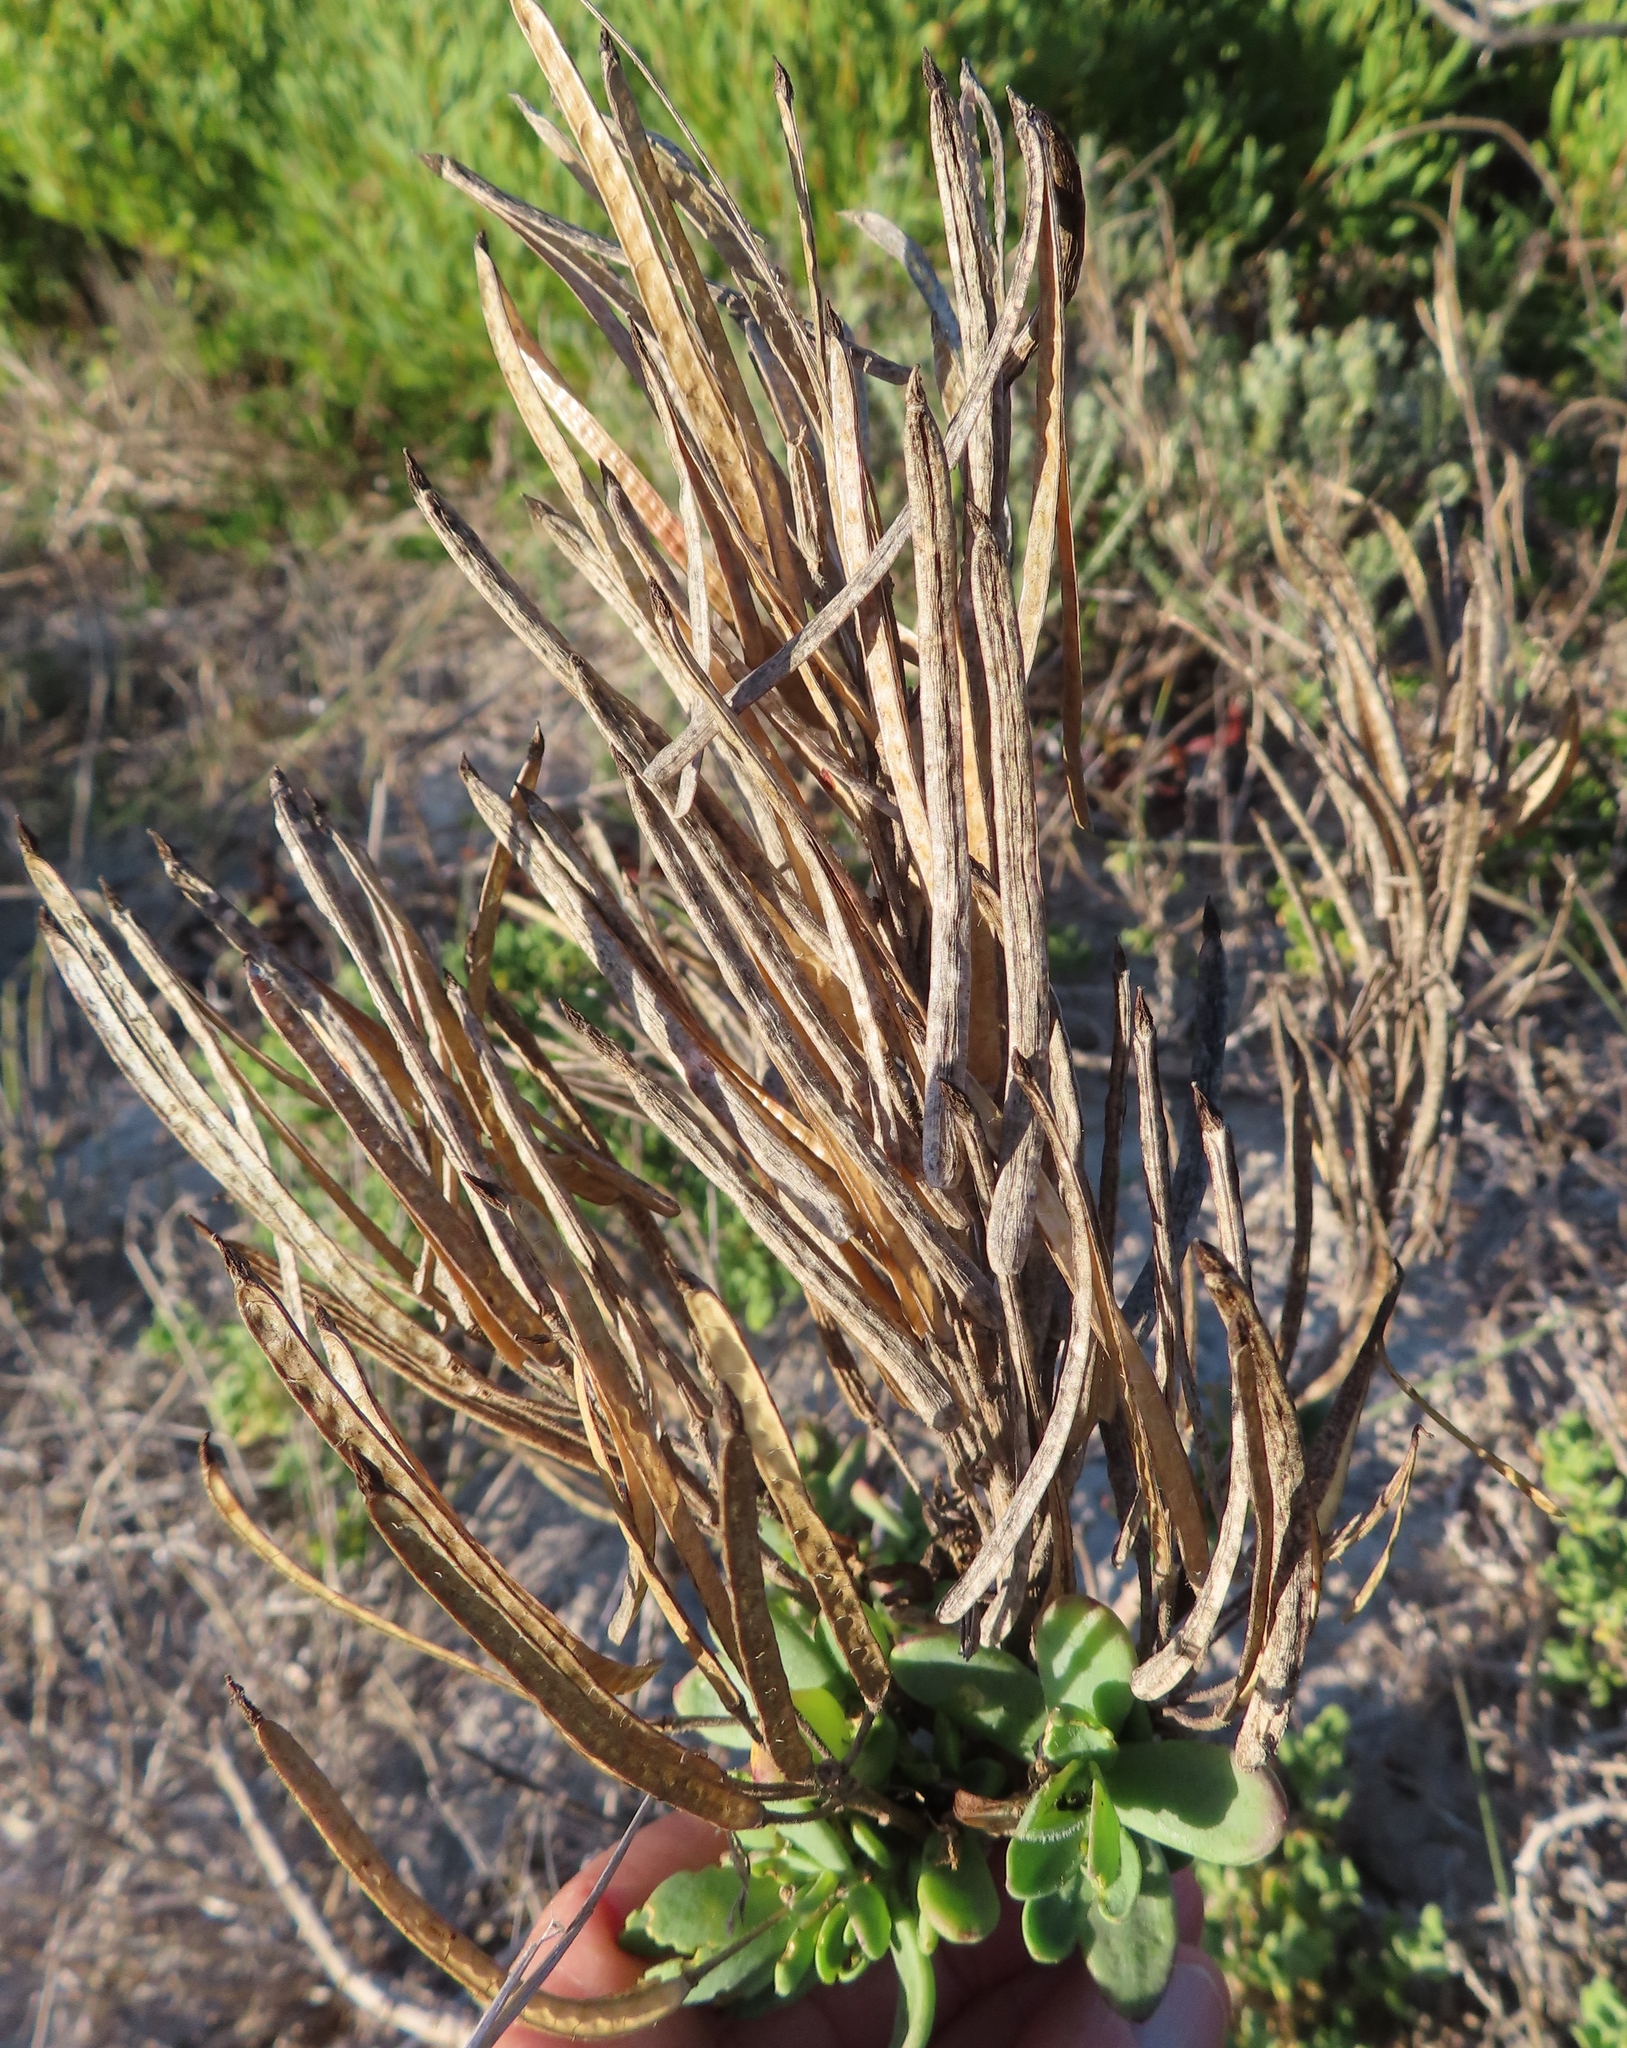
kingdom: Plantae
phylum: Tracheophyta
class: Magnoliopsida
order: Brassicales
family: Brassicaceae
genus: Heliophila
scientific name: Heliophila linearis
